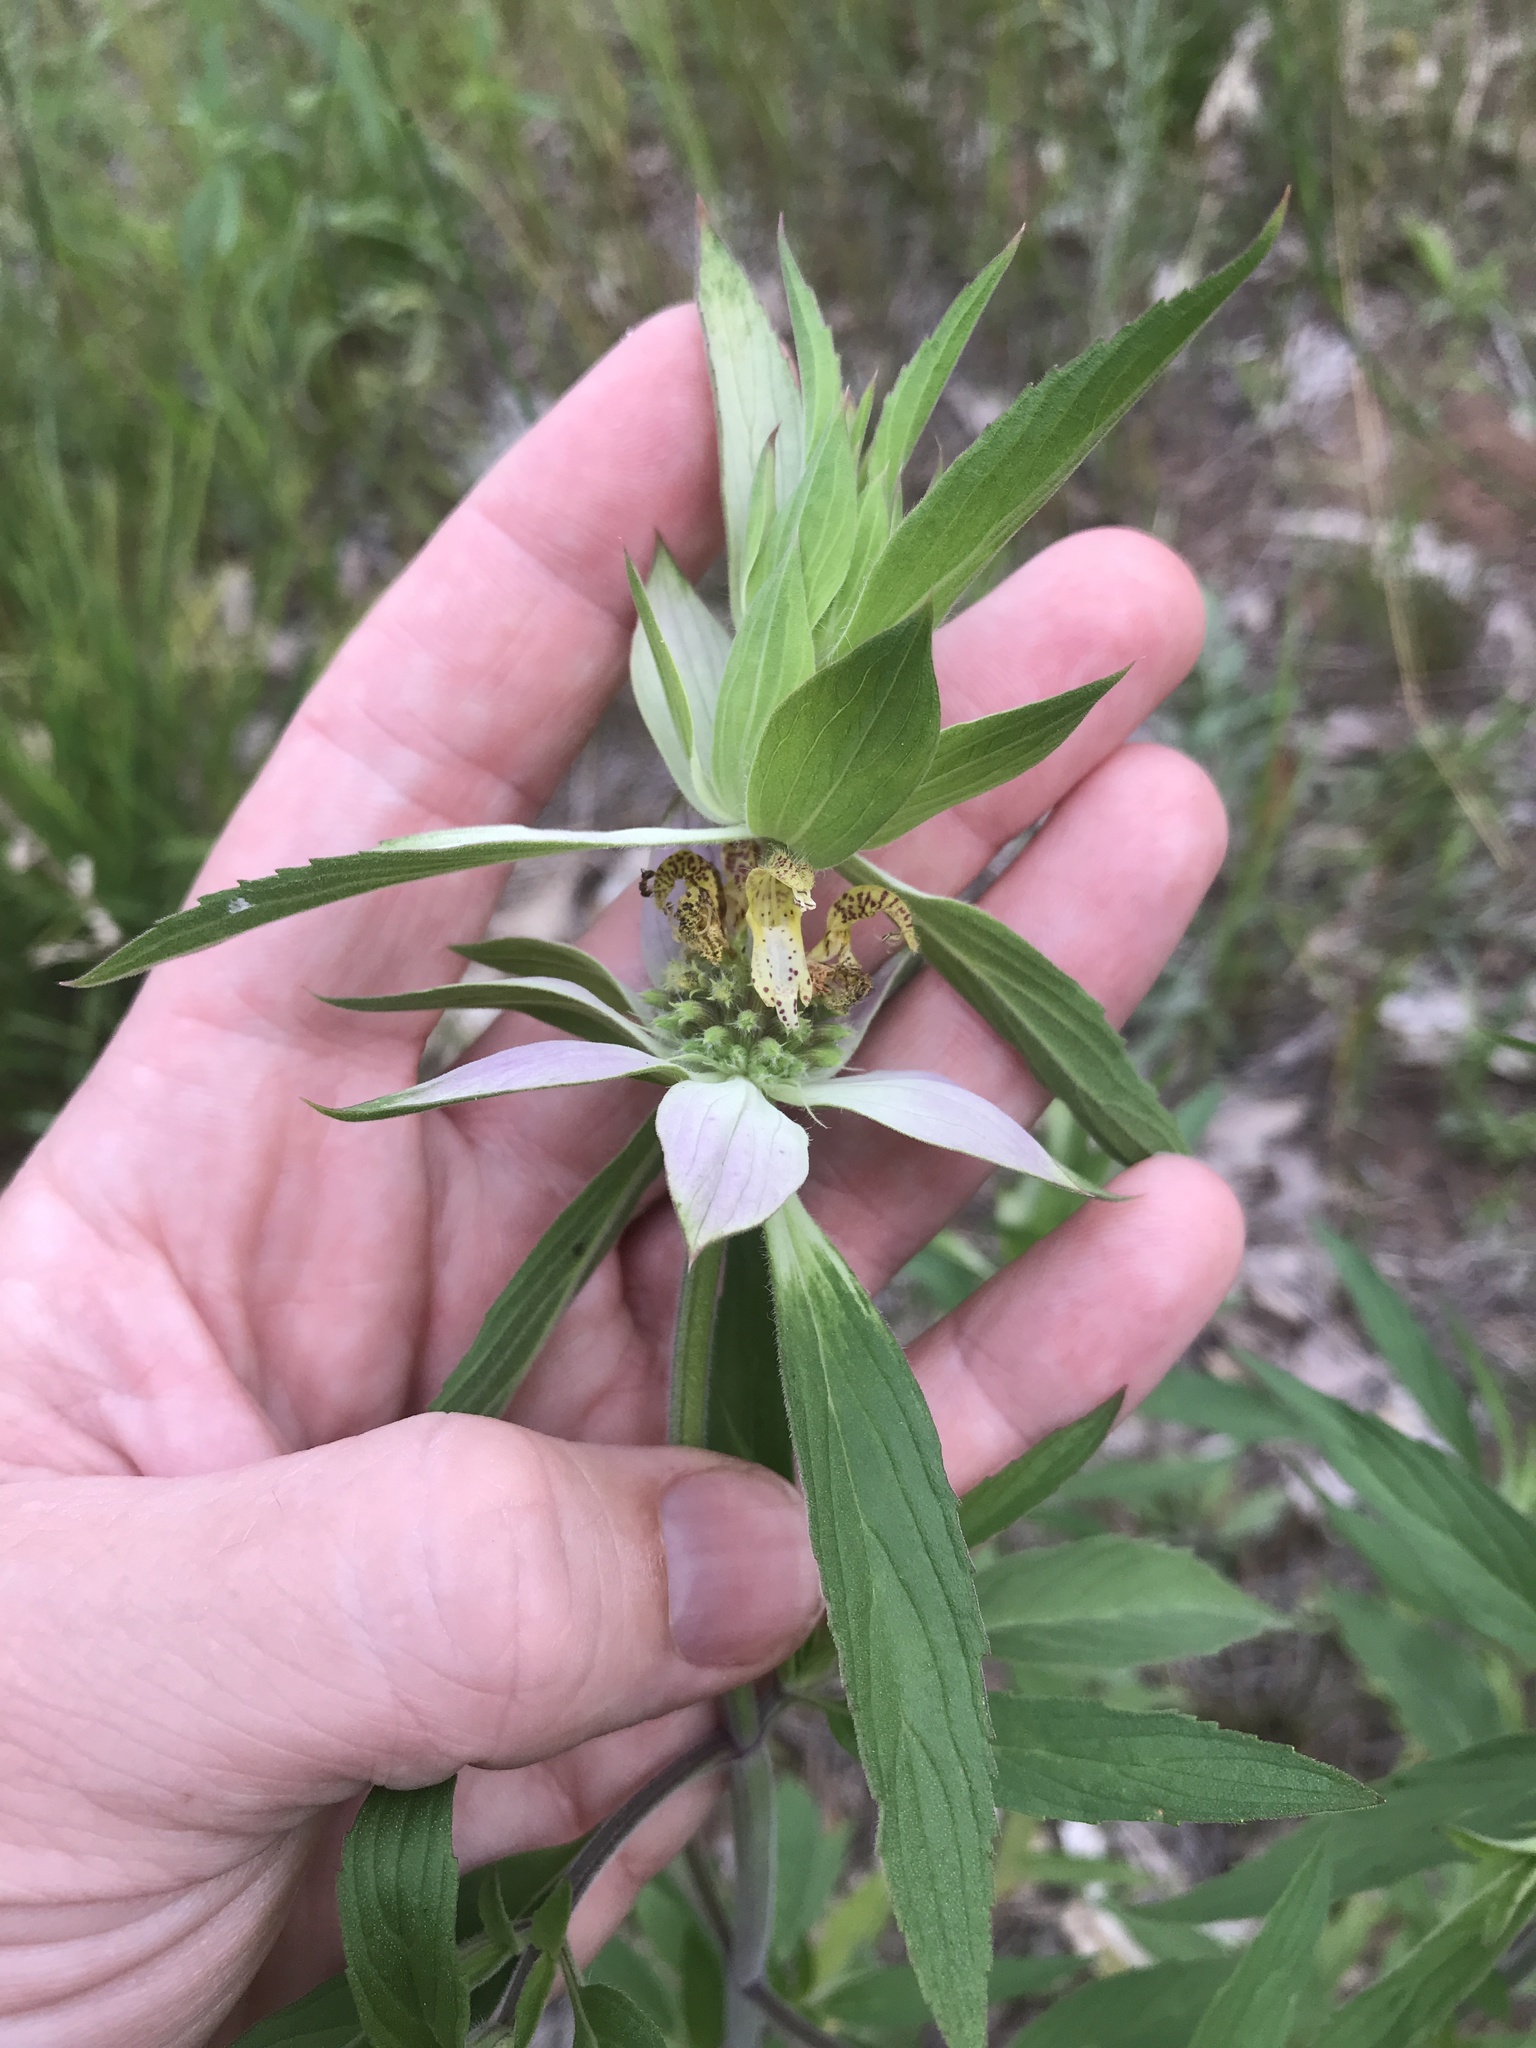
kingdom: Plantae
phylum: Tracheophyta
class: Magnoliopsida
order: Lamiales
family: Lamiaceae
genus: Monarda
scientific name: Monarda punctata
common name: Dotted monarda
